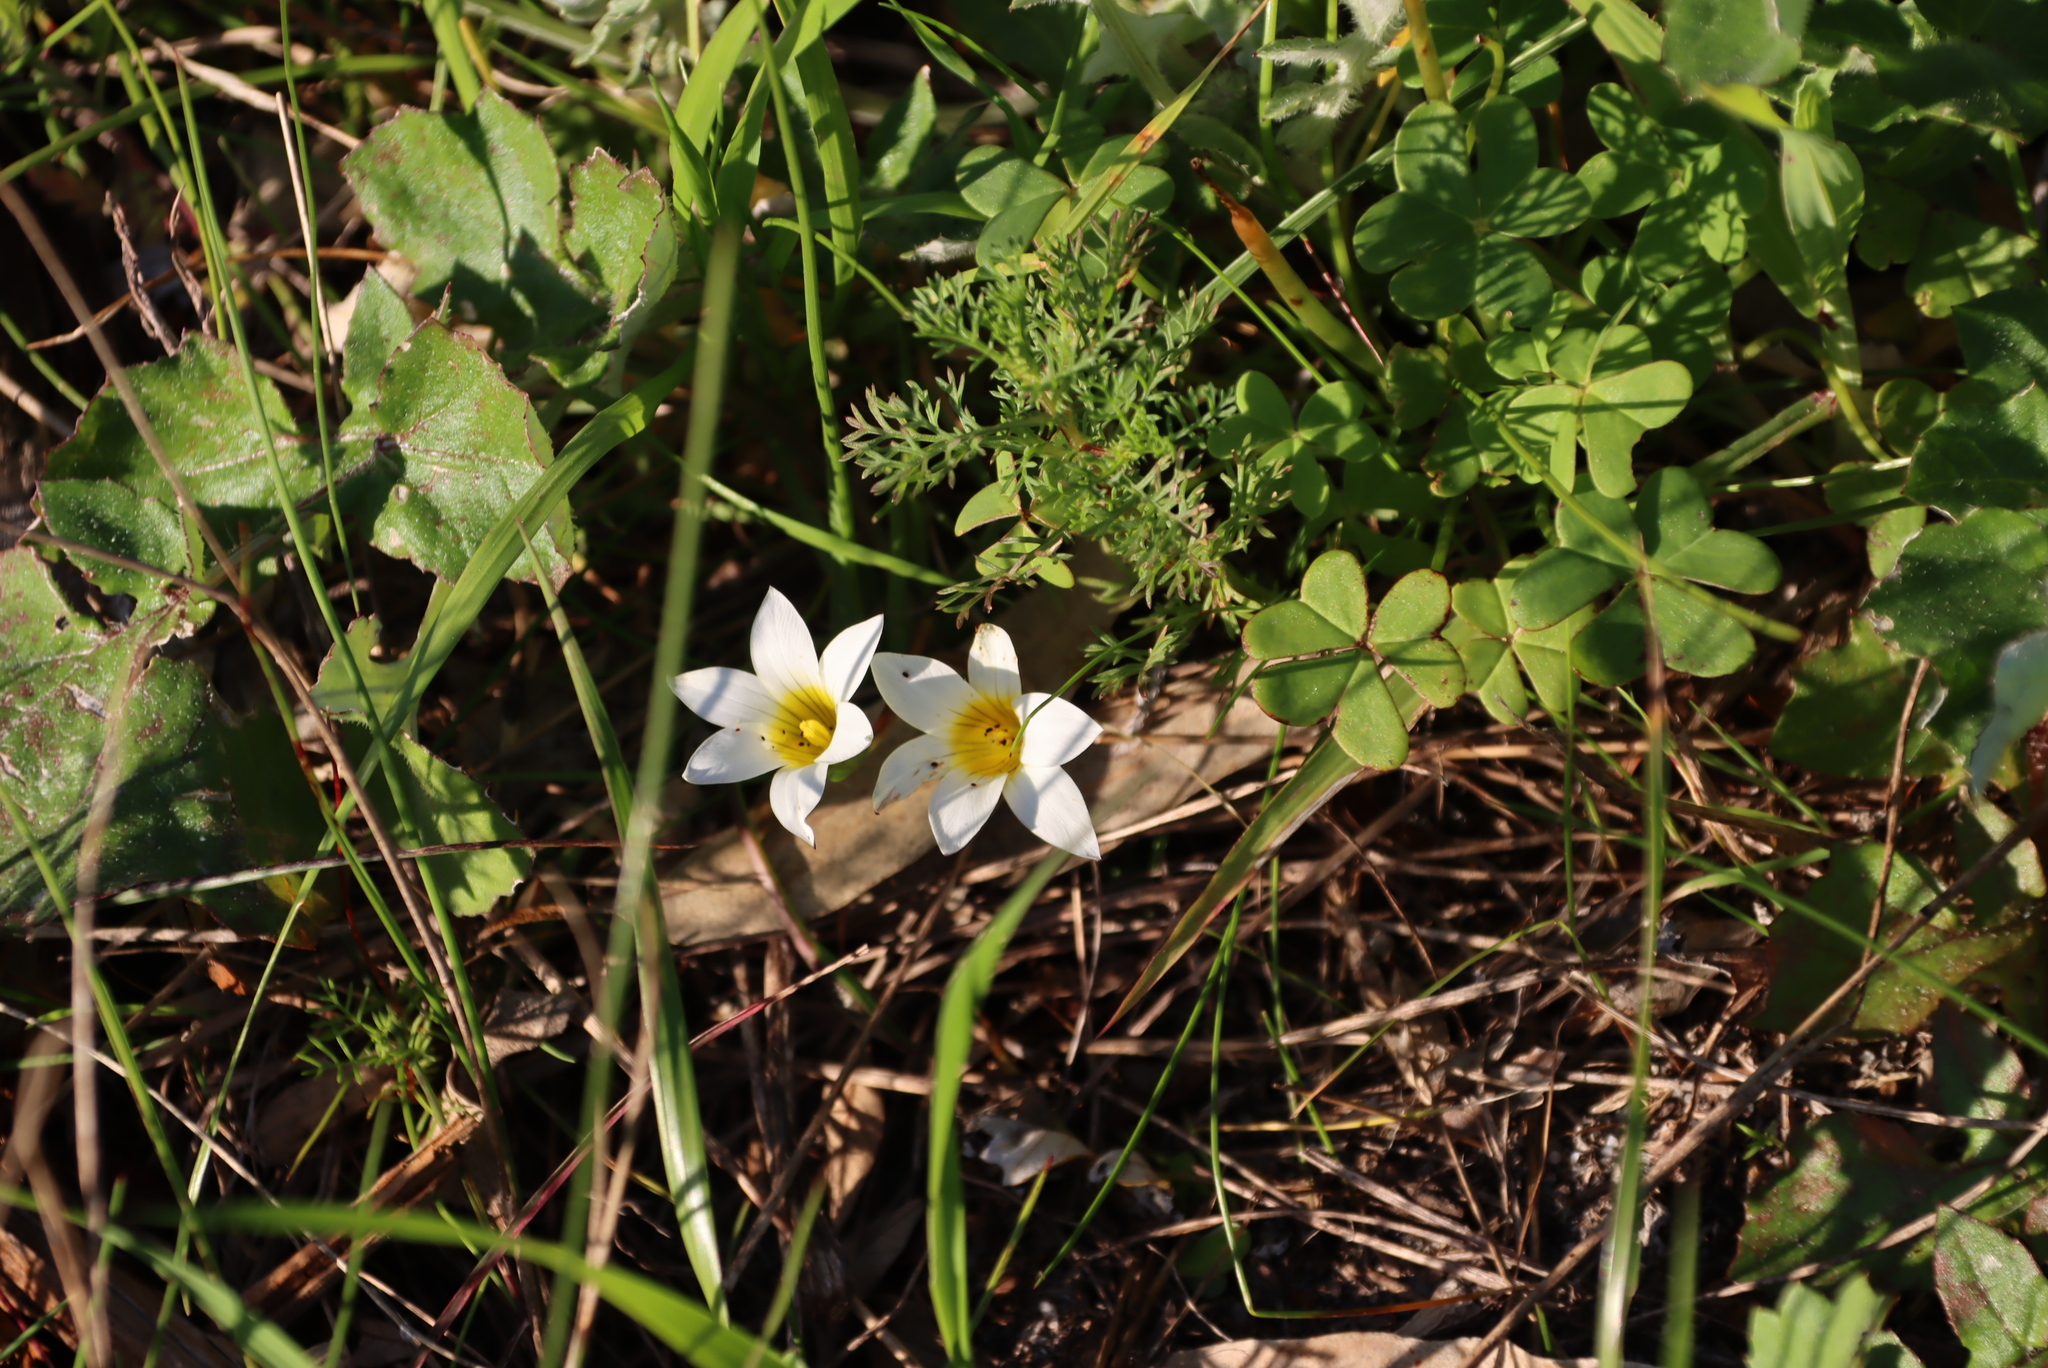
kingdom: Plantae
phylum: Tracheophyta
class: Liliopsida
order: Asparagales
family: Iridaceae
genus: Romulea
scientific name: Romulea flava
